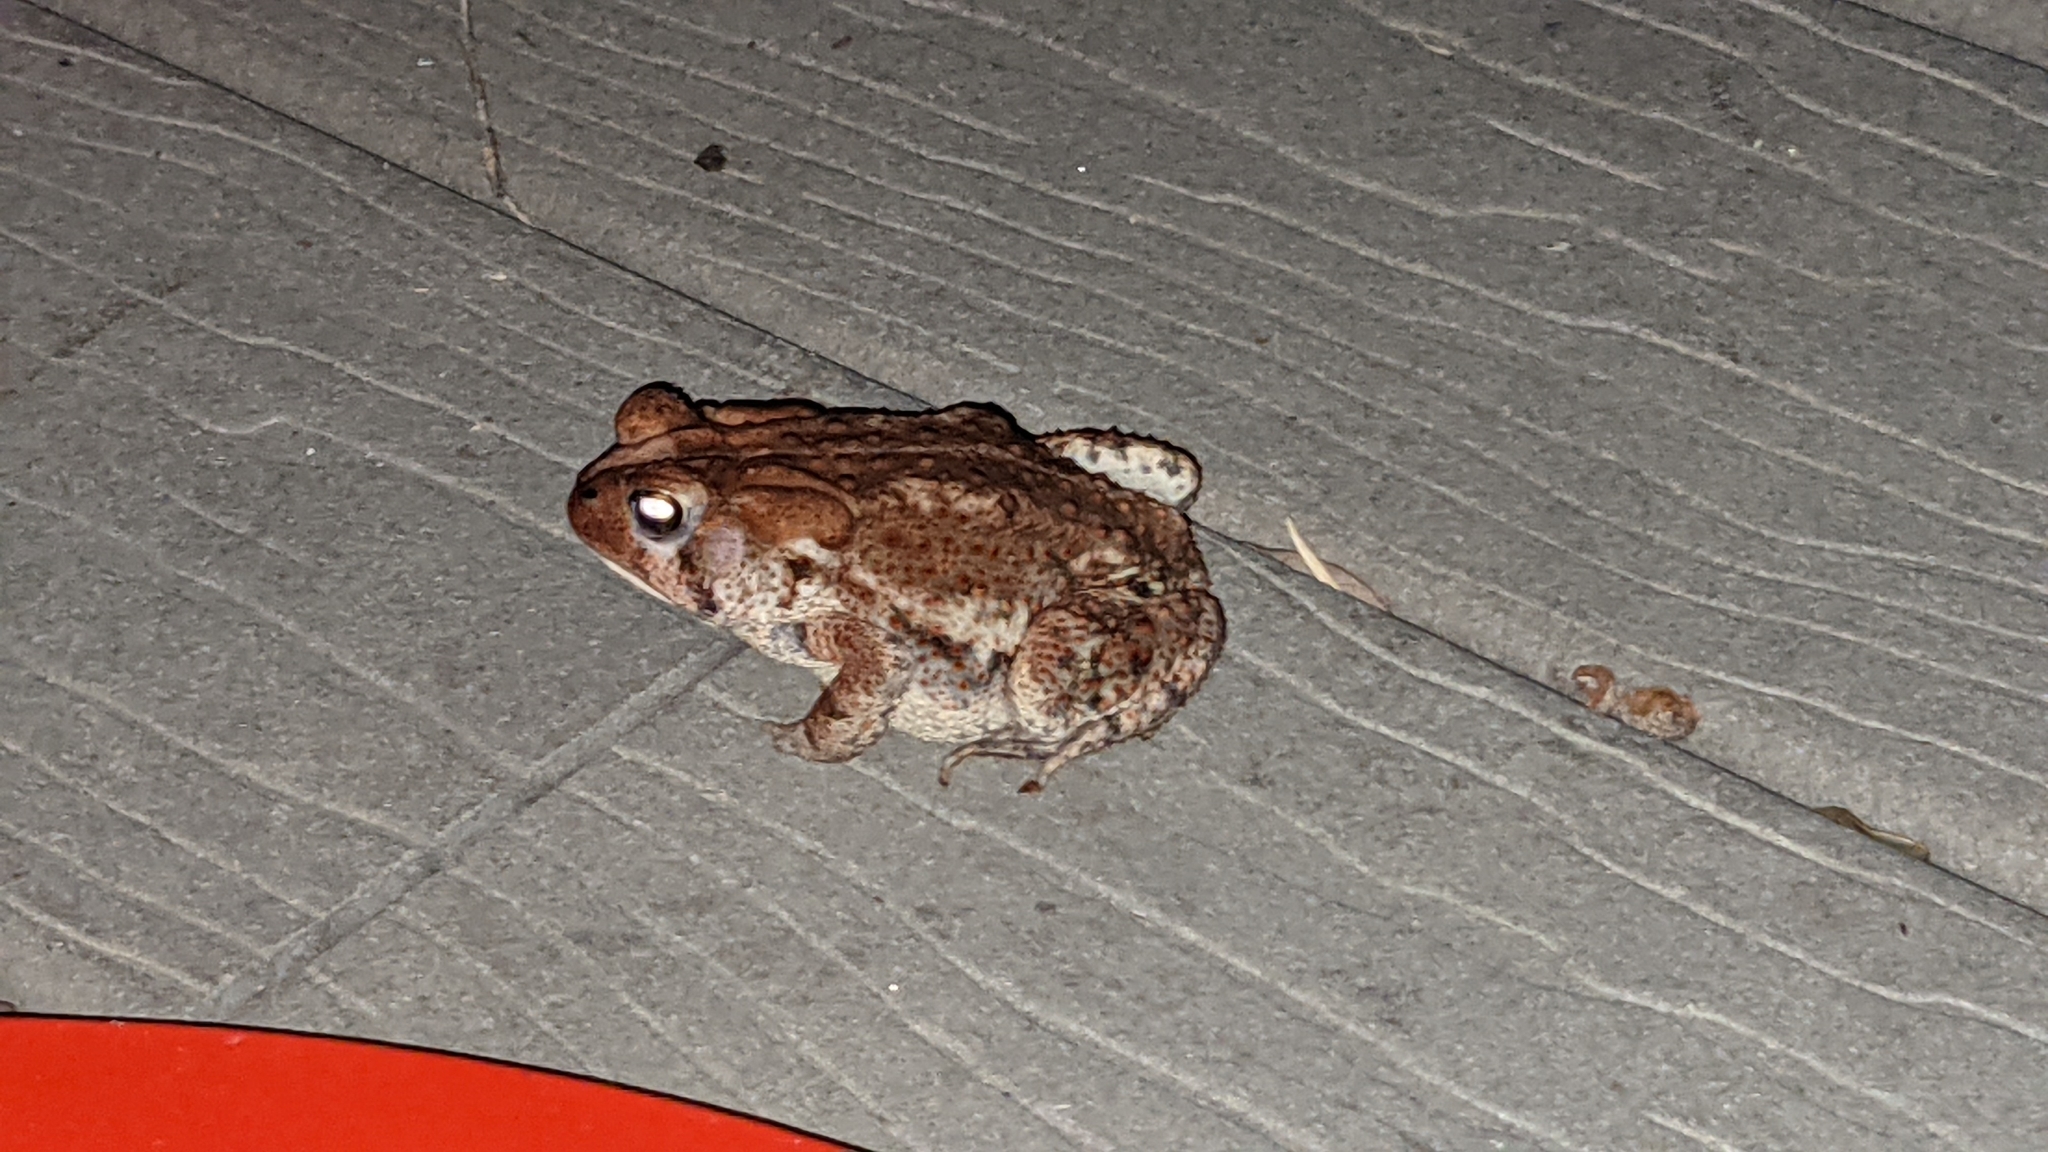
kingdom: Animalia
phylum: Chordata
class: Amphibia
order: Anura
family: Bufonidae
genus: Anaxyrus
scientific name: Anaxyrus fowleri
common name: Fowler's toad
